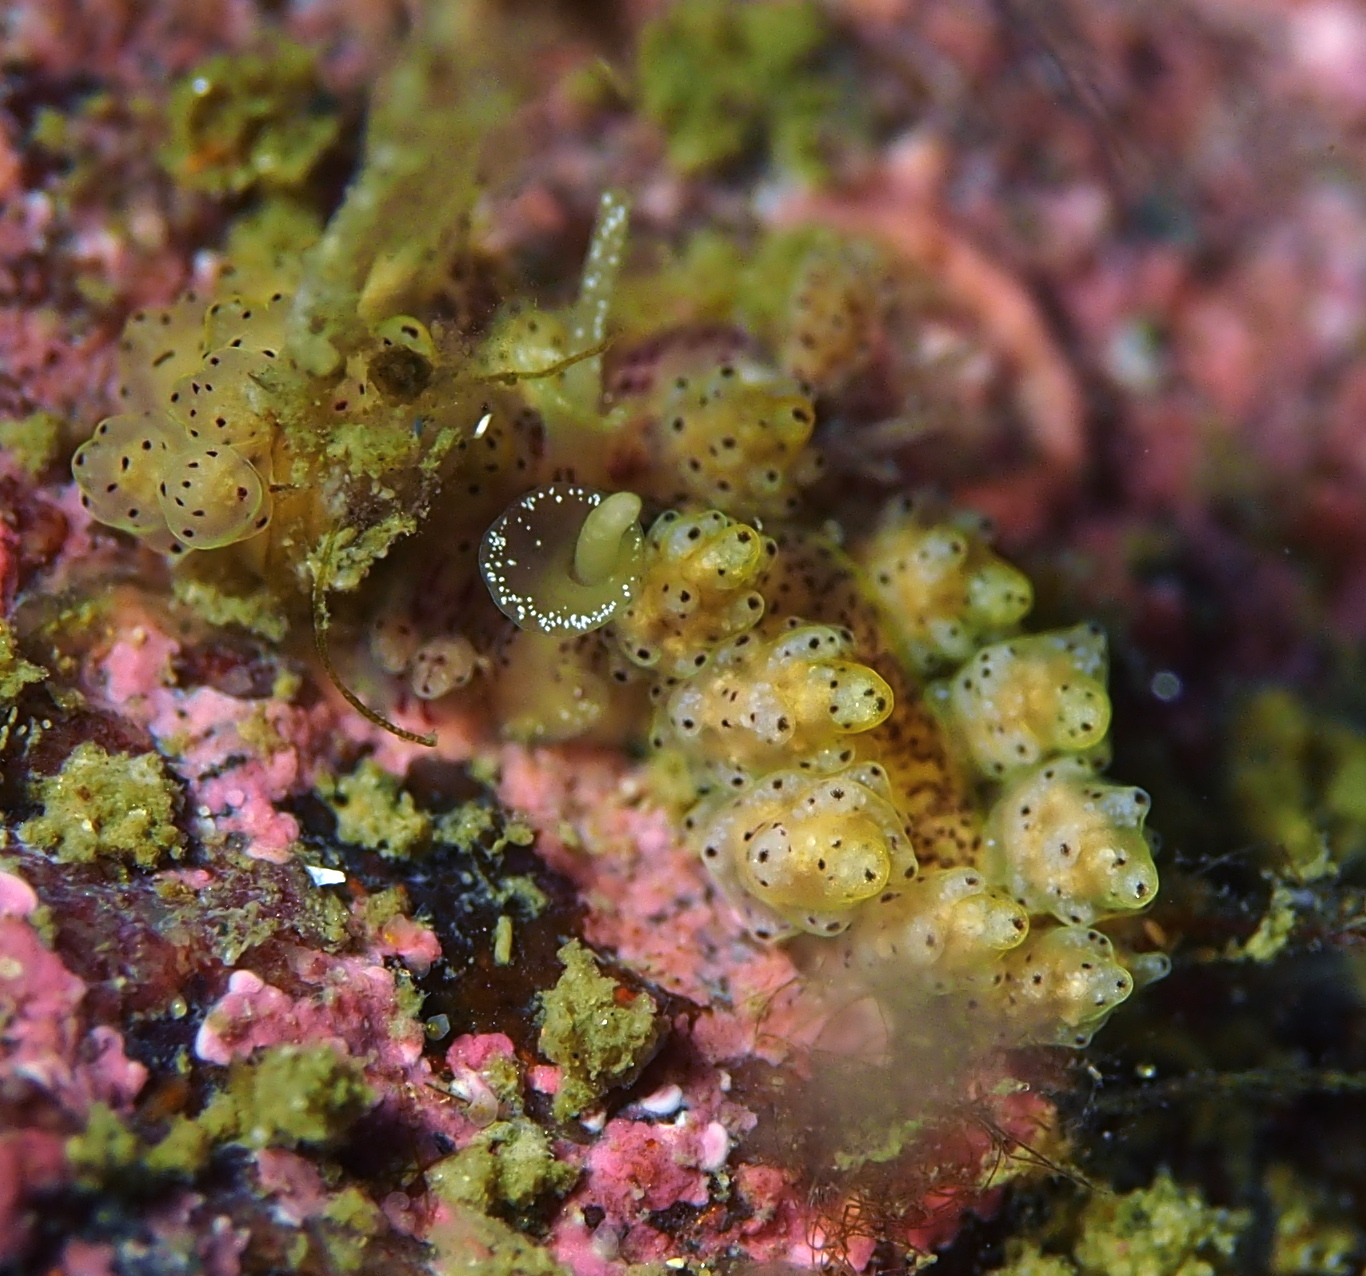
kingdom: Animalia
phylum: Mollusca
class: Gastropoda
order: Nudibranchia
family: Dotidae
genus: Doto
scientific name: Doto dunnei
